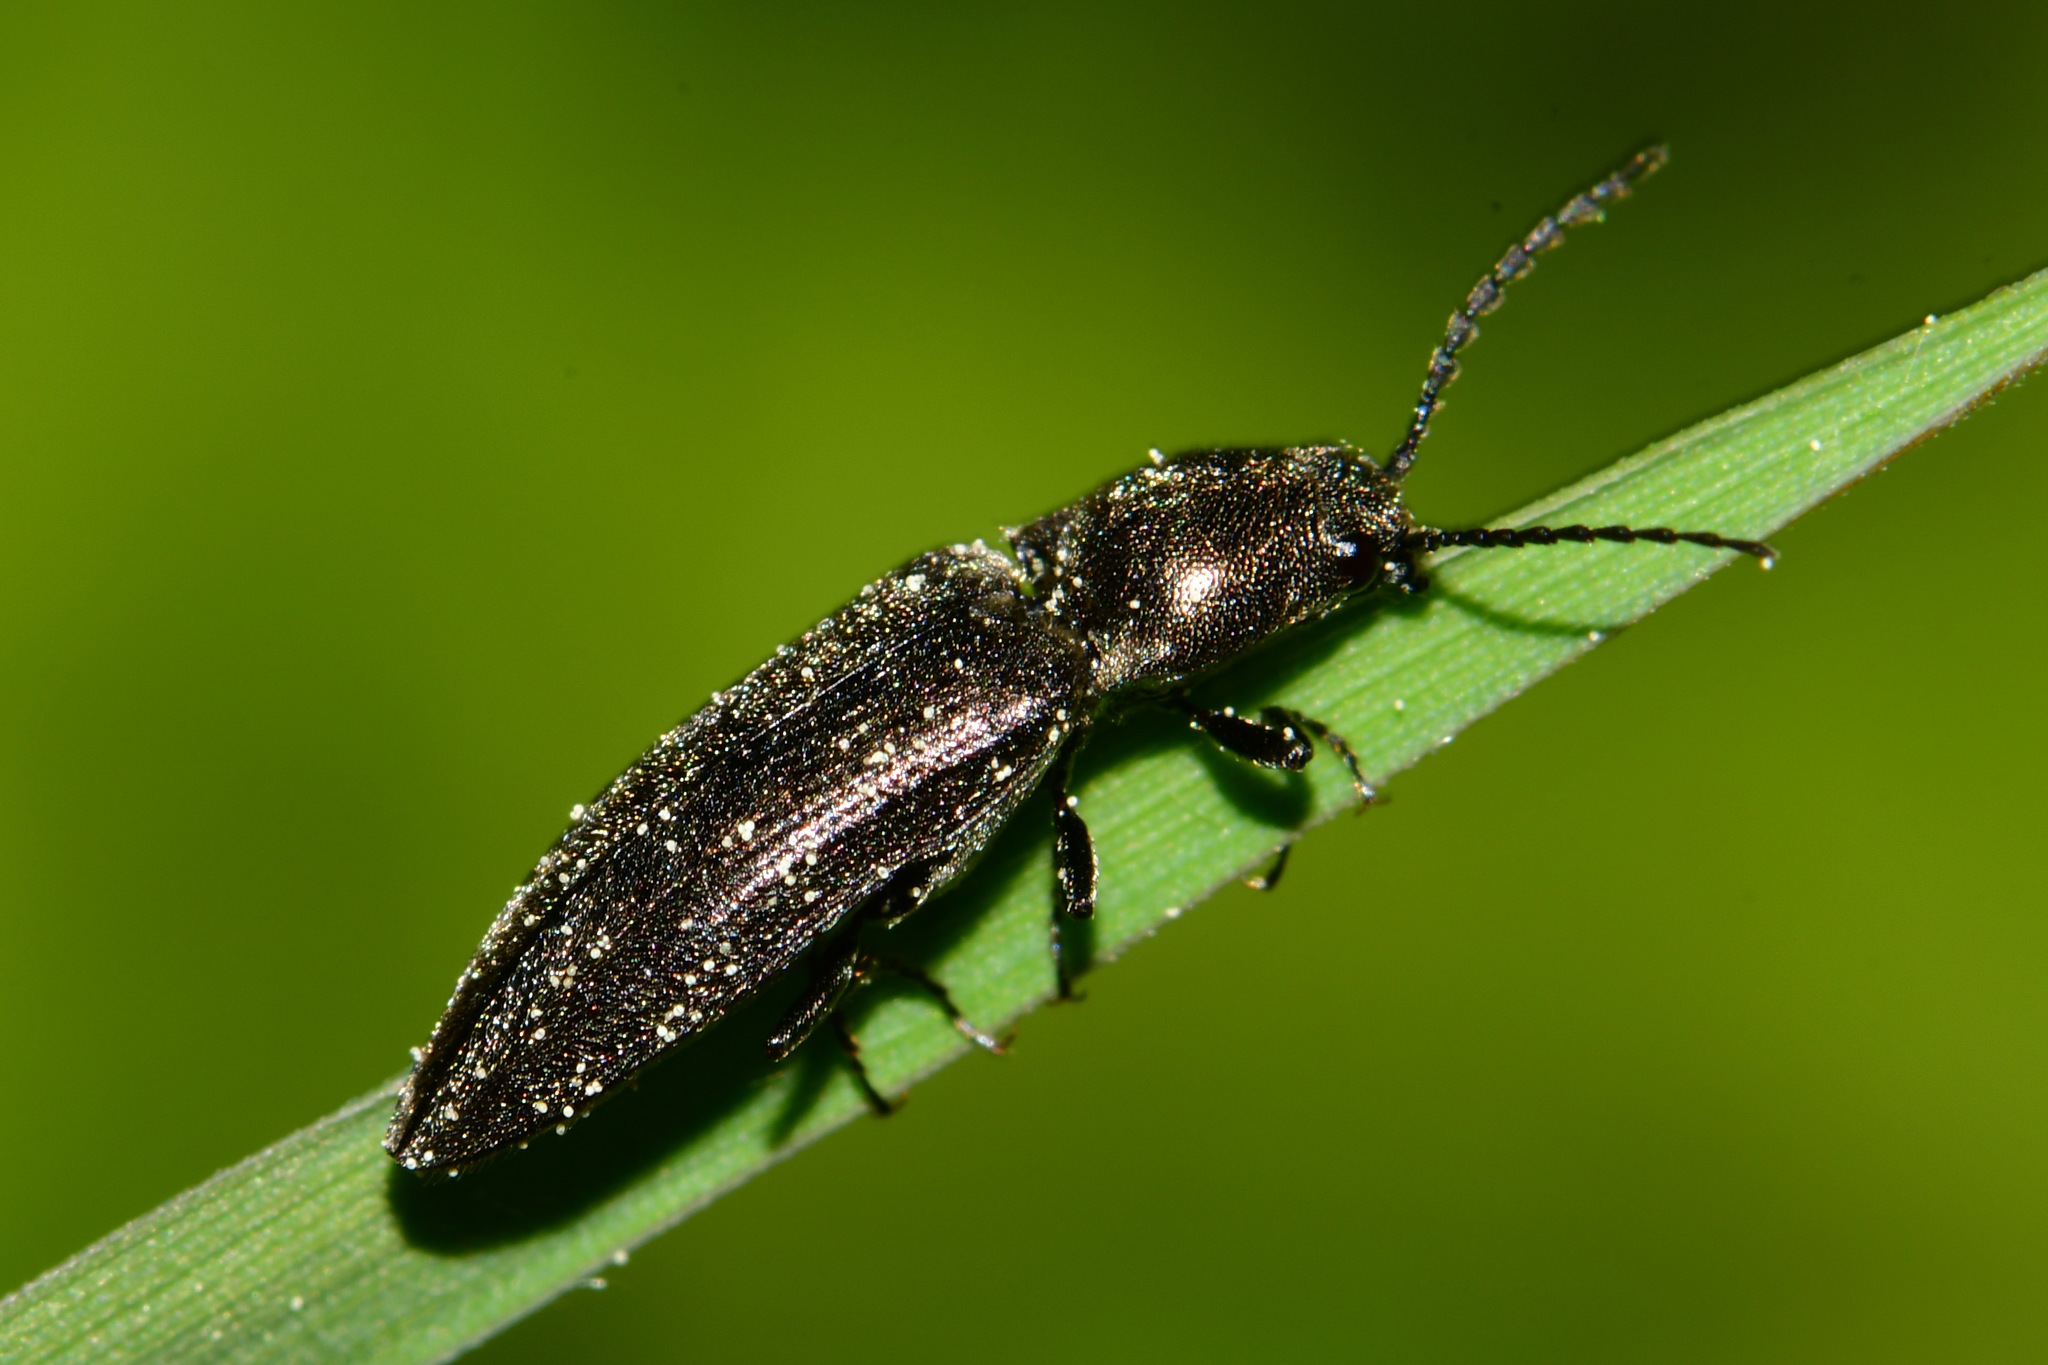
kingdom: Animalia
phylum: Arthropoda
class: Insecta
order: Coleoptera
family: Elateridae
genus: Cidnopus
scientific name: Cidnopus aeruginosus
